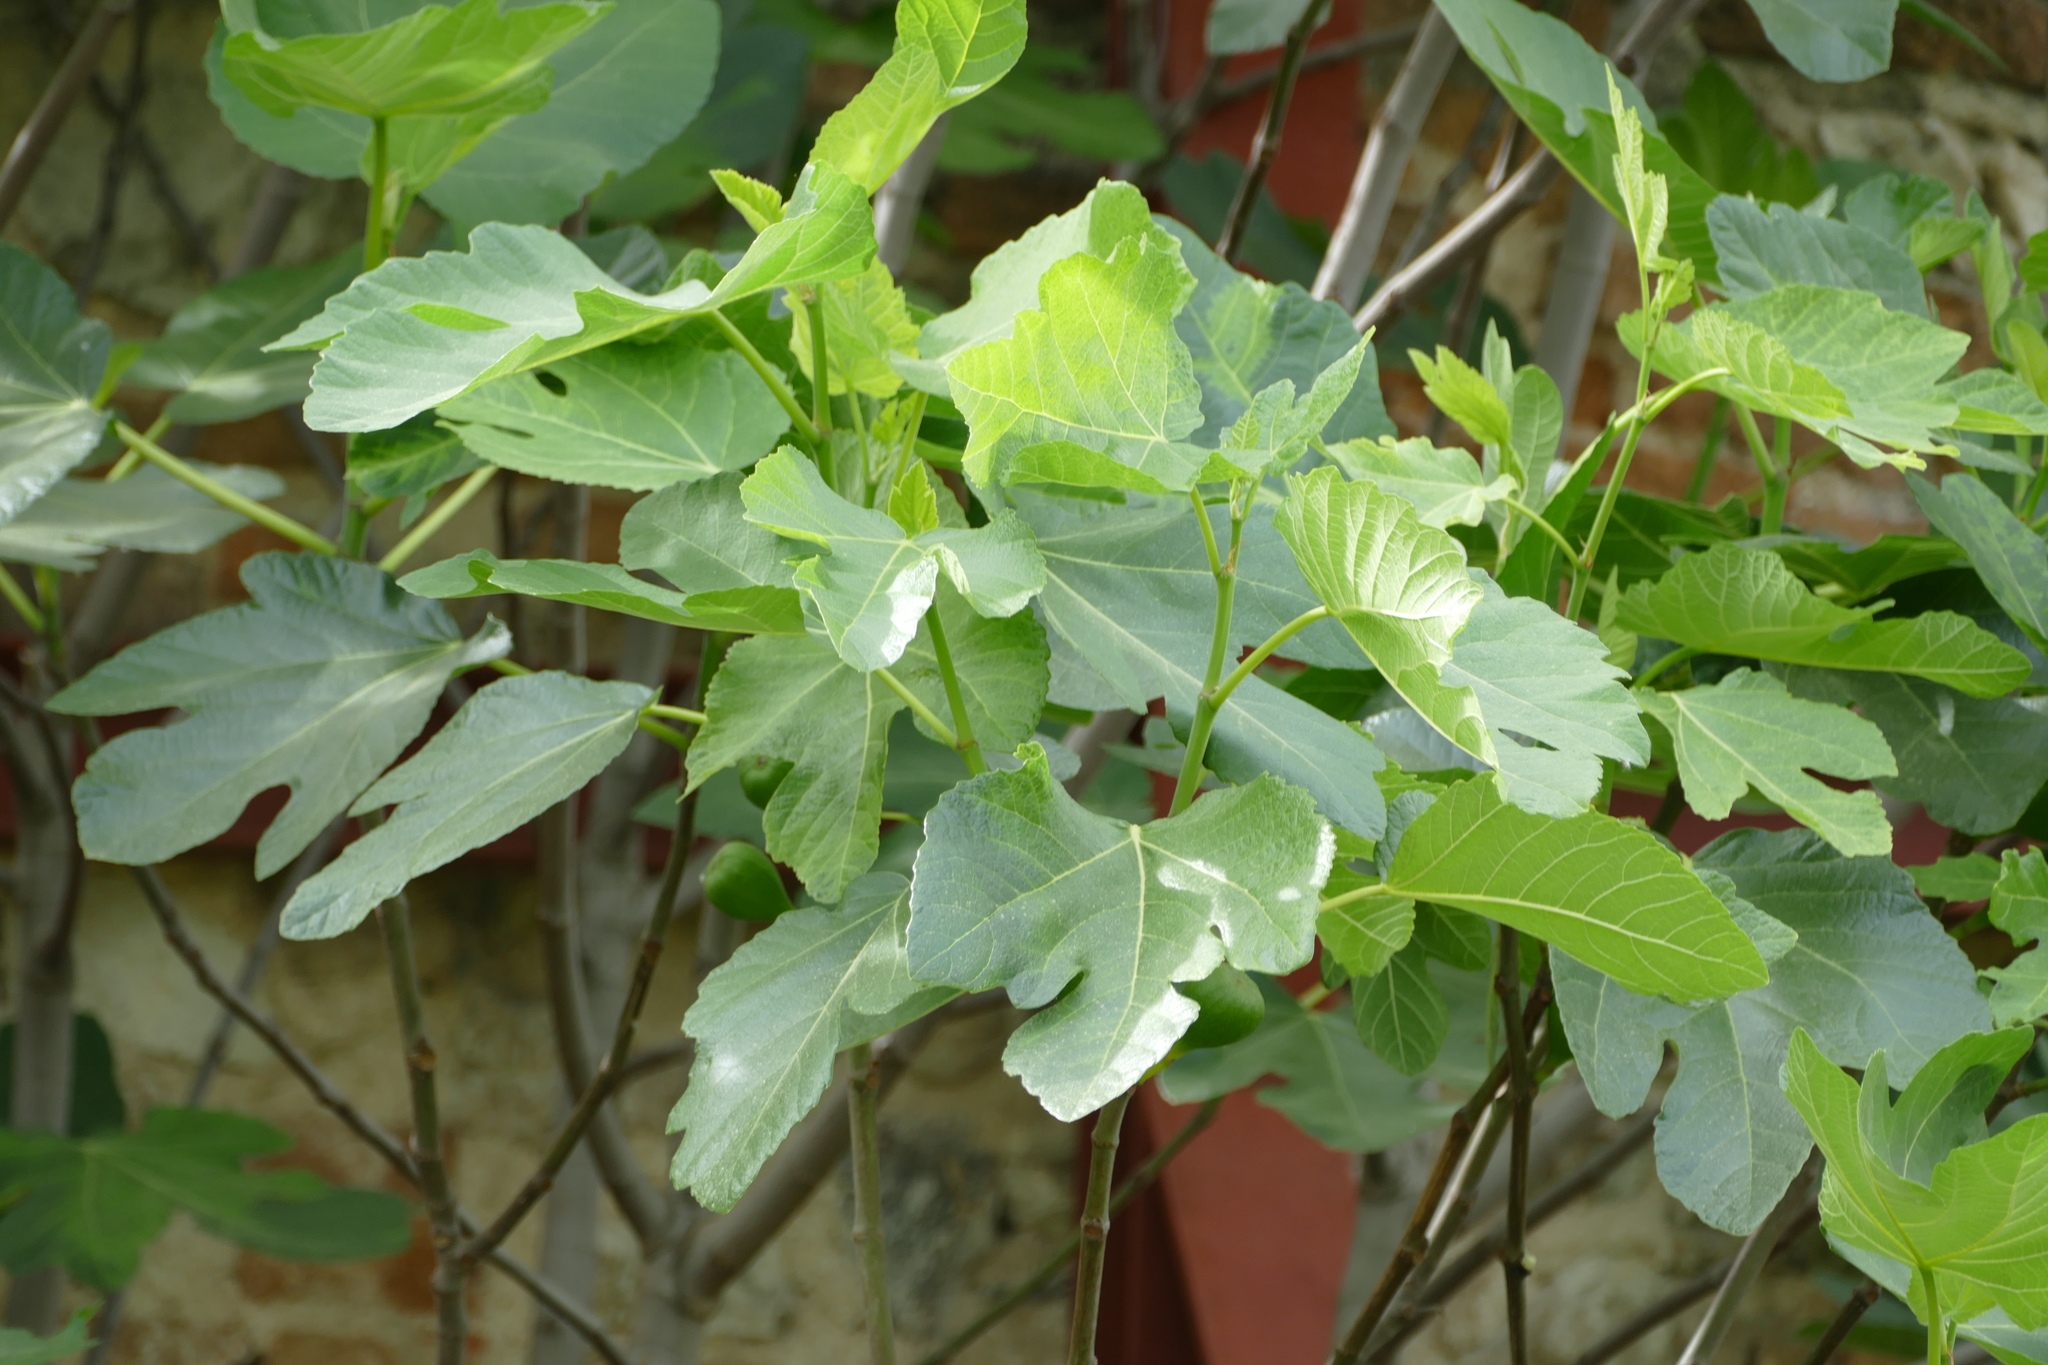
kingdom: Plantae
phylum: Tracheophyta
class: Magnoliopsida
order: Rosales
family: Moraceae
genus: Ficus
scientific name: Ficus carica
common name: Fig
